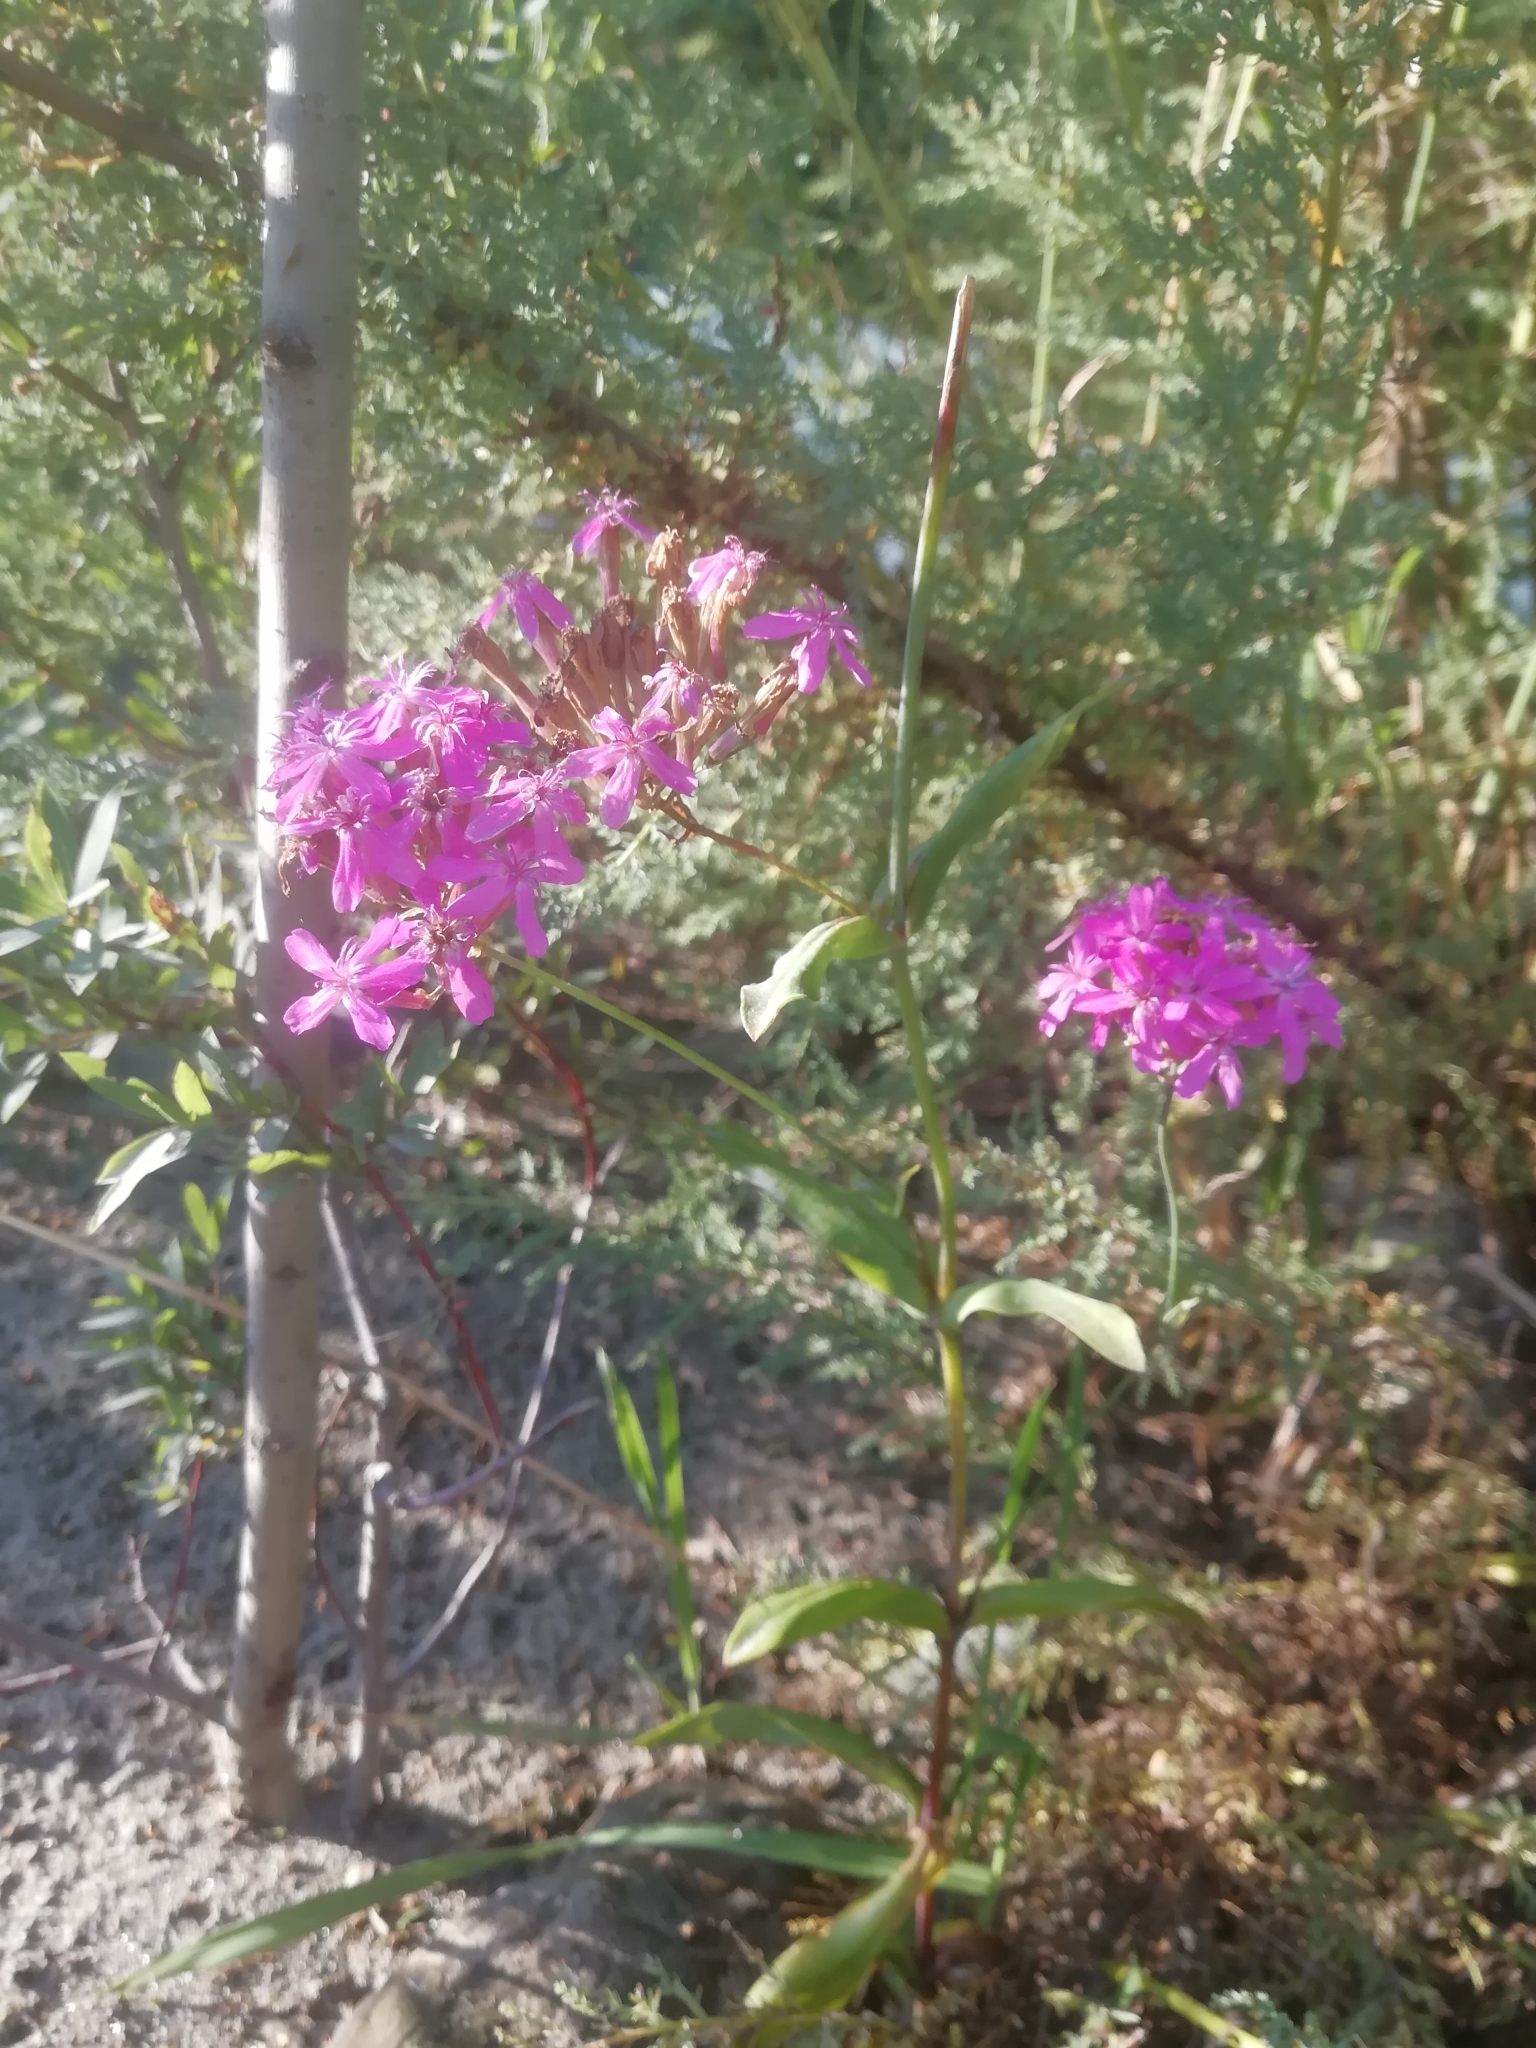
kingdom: Plantae
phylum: Tracheophyta
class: Magnoliopsida
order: Caryophyllales
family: Caryophyllaceae
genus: Atocion
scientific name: Atocion compactum
